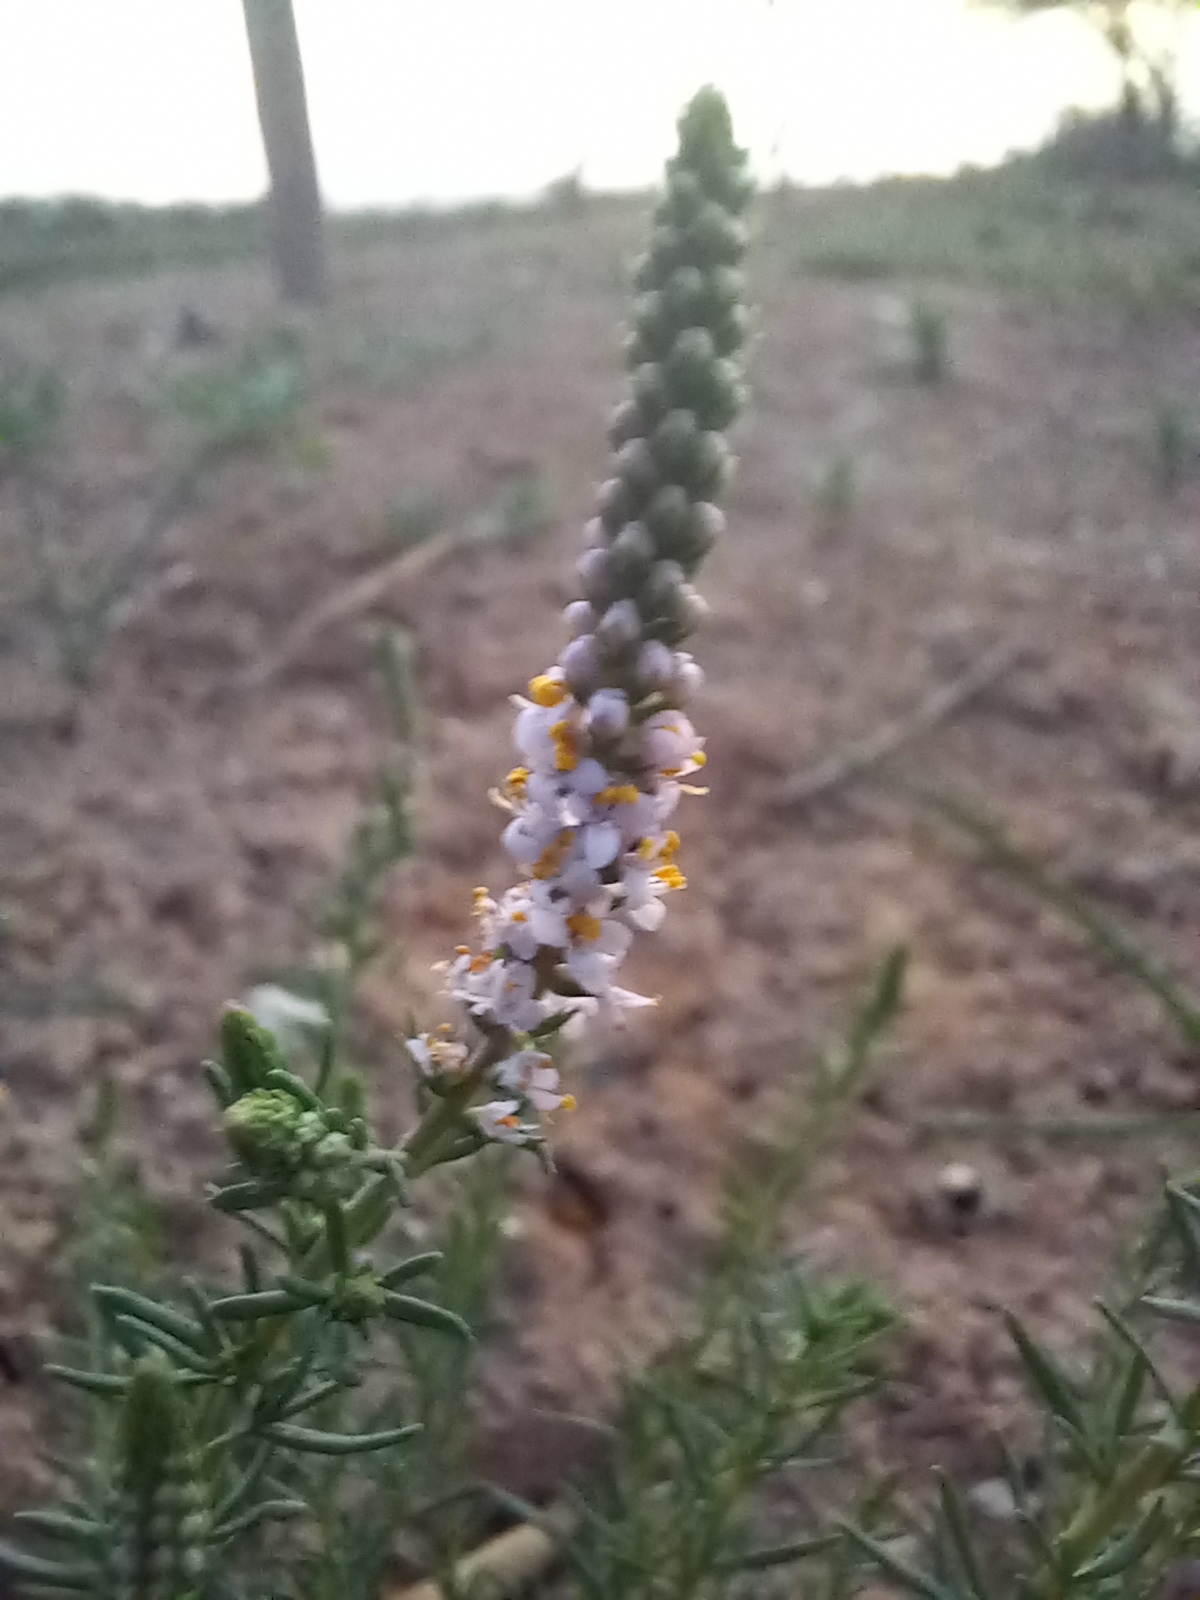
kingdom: Plantae
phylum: Tracheophyta
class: Magnoliopsida
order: Lamiales
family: Scrophulariaceae
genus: Selago
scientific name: Selago geniculata
